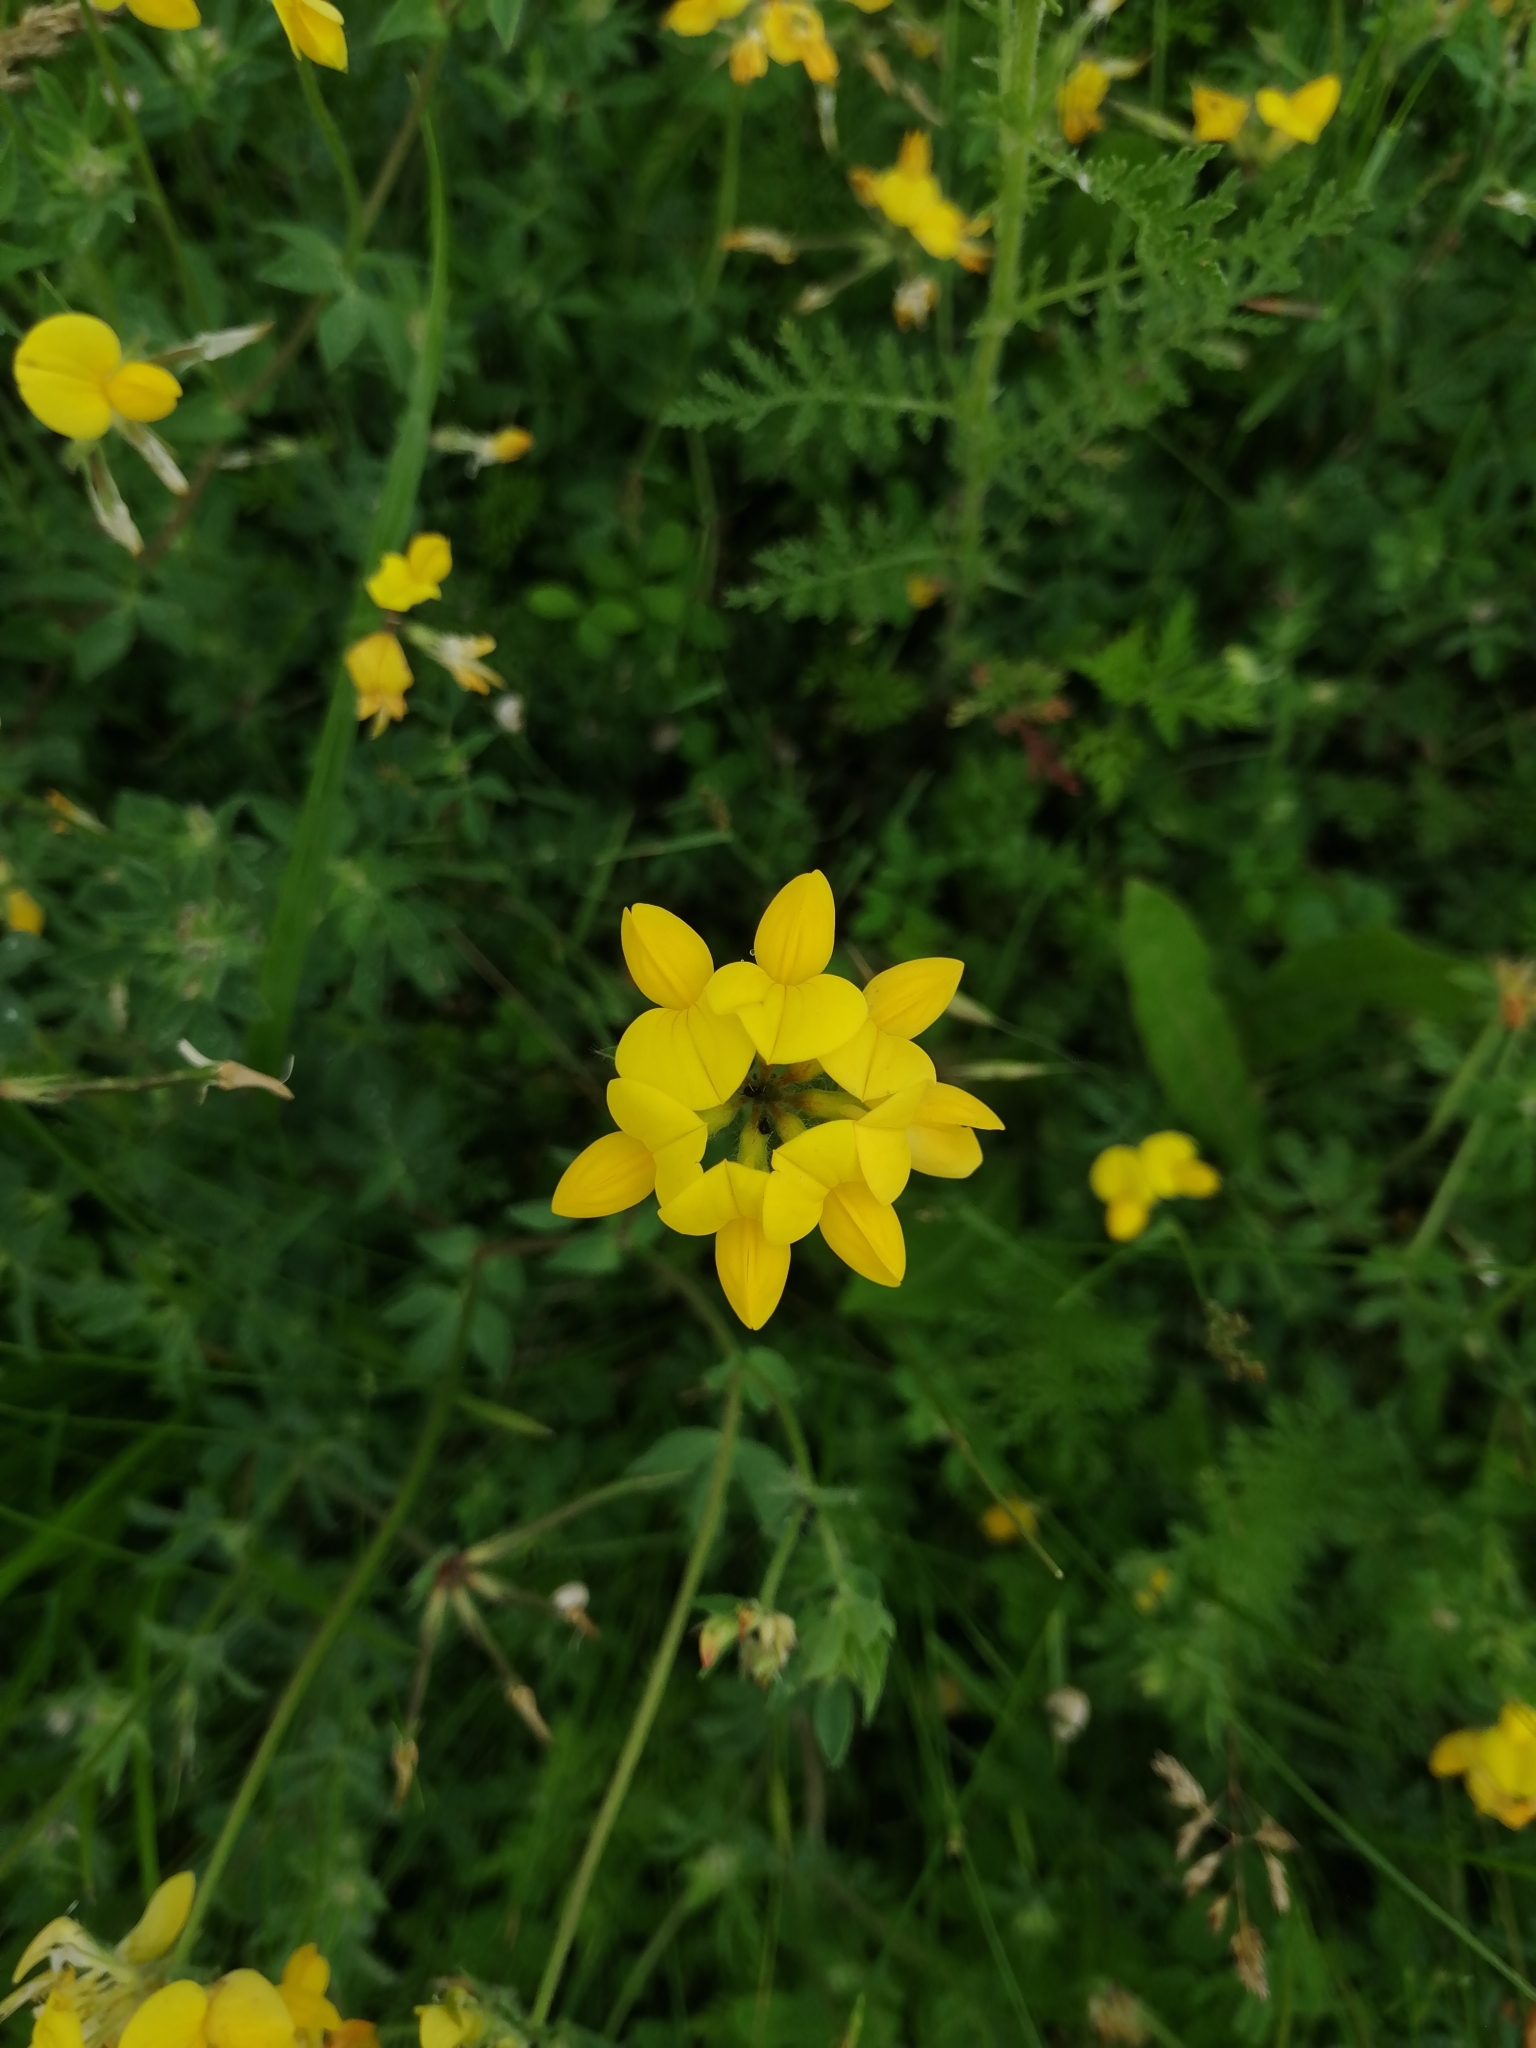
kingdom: Plantae
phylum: Tracheophyta
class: Magnoliopsida
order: Fabales
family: Fabaceae
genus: Lotus
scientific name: Lotus corniculatus
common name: Common bird's-foot-trefoil
